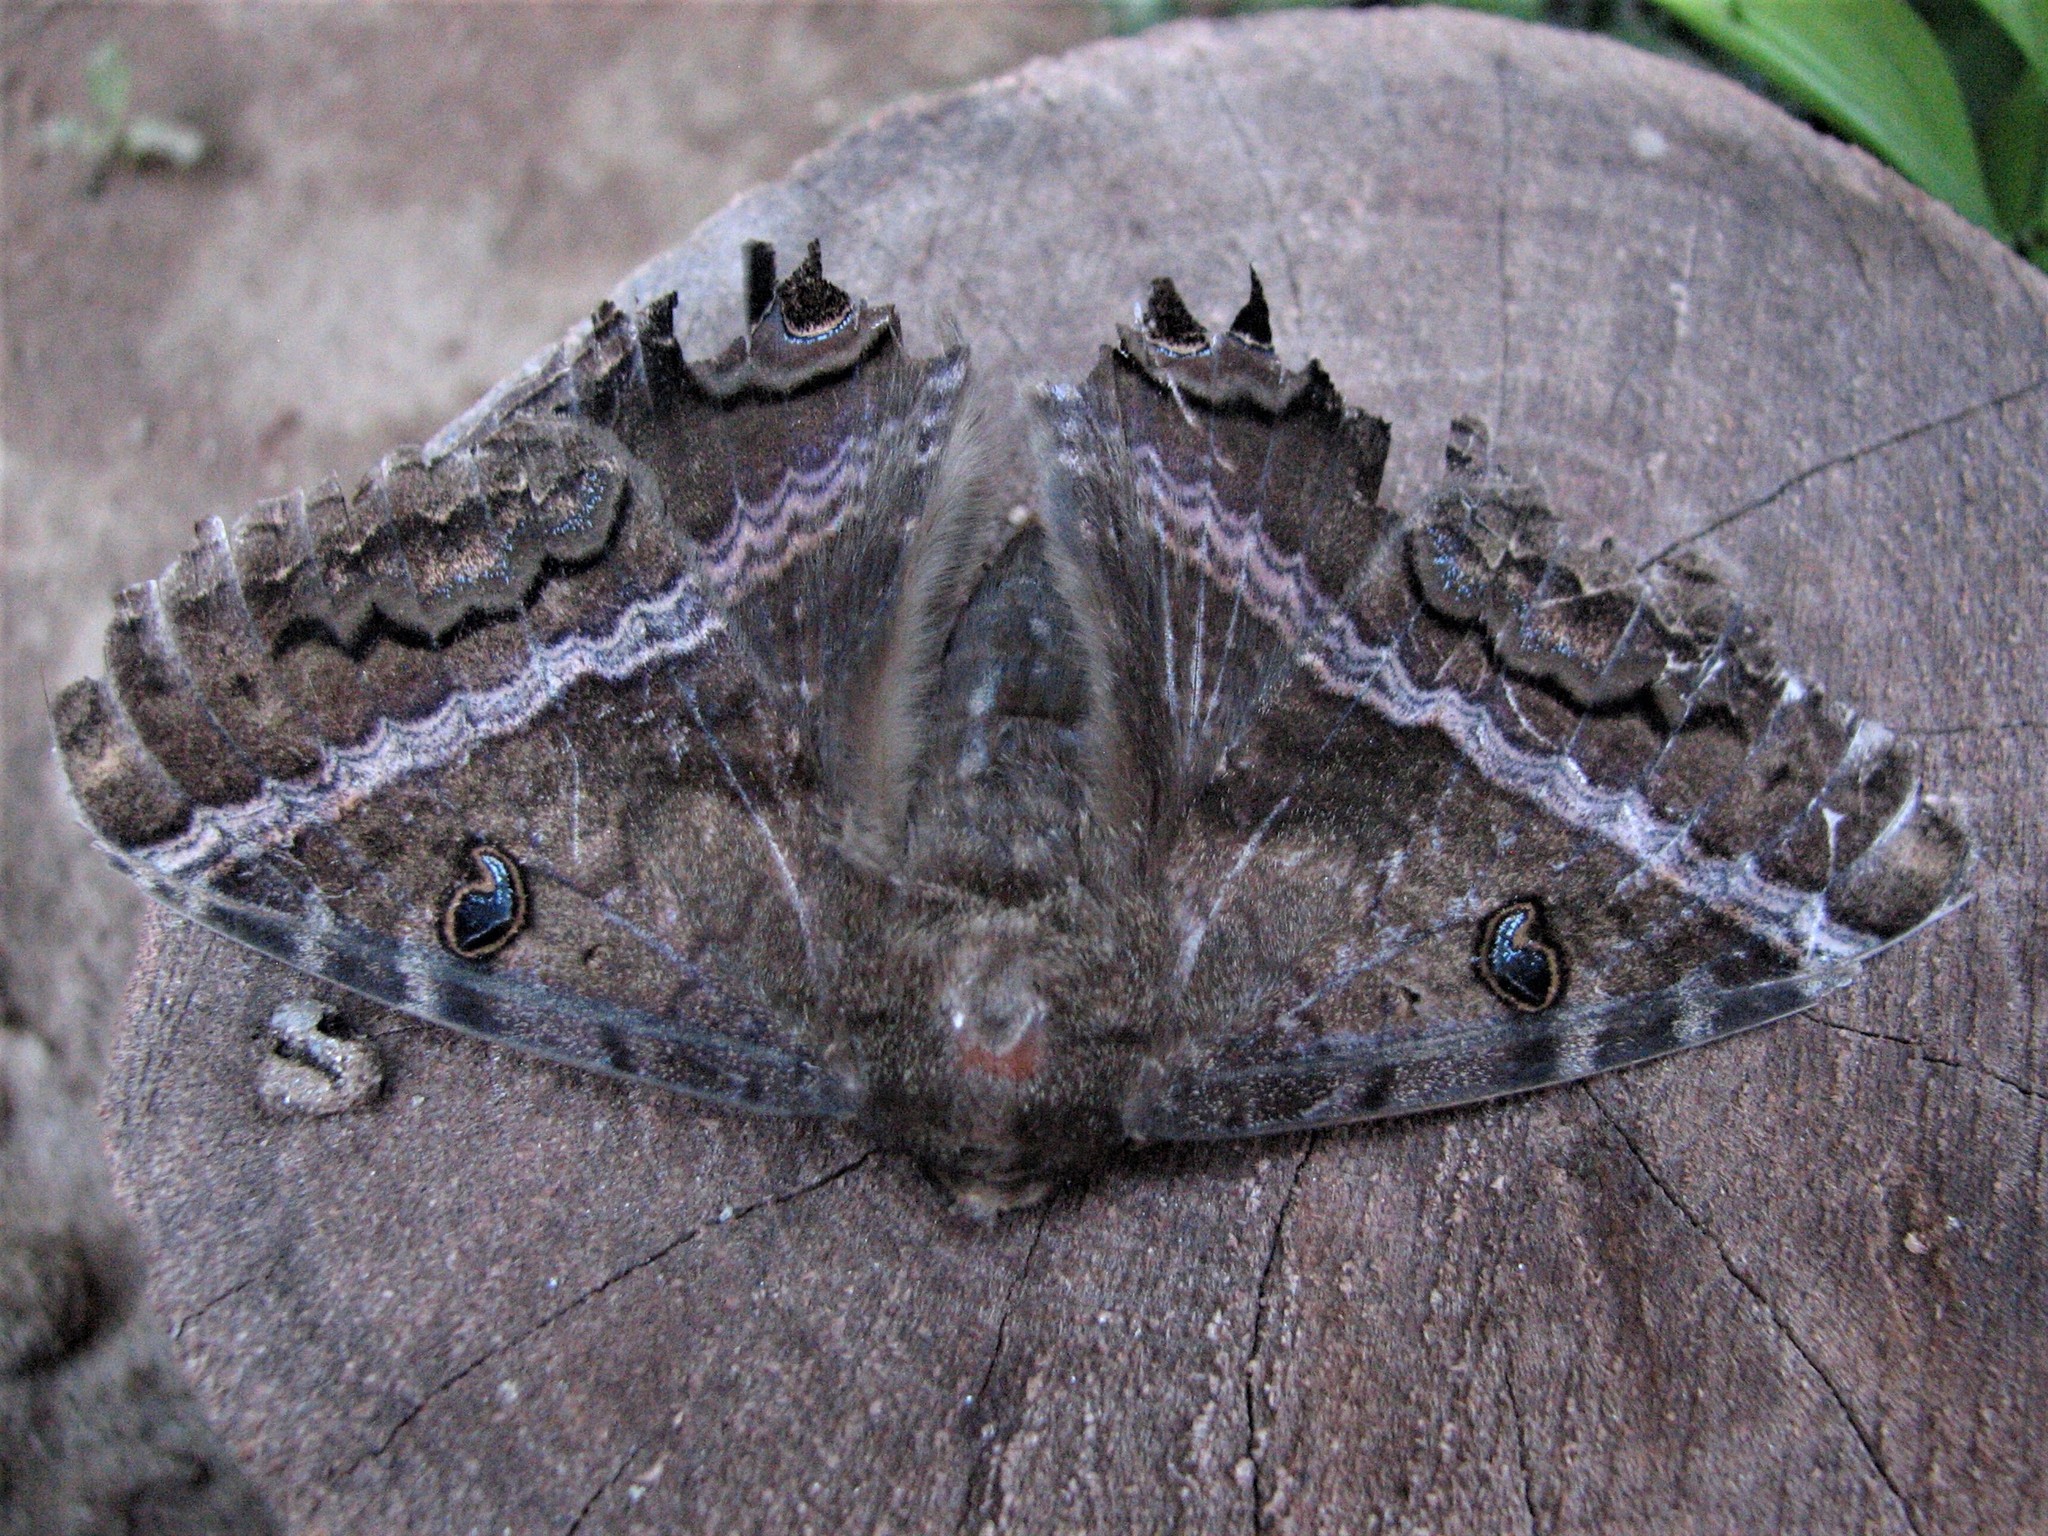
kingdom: Animalia
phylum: Arthropoda
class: Insecta
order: Lepidoptera
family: Erebidae
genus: Ascalapha
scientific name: Ascalapha odorata
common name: Black witch
